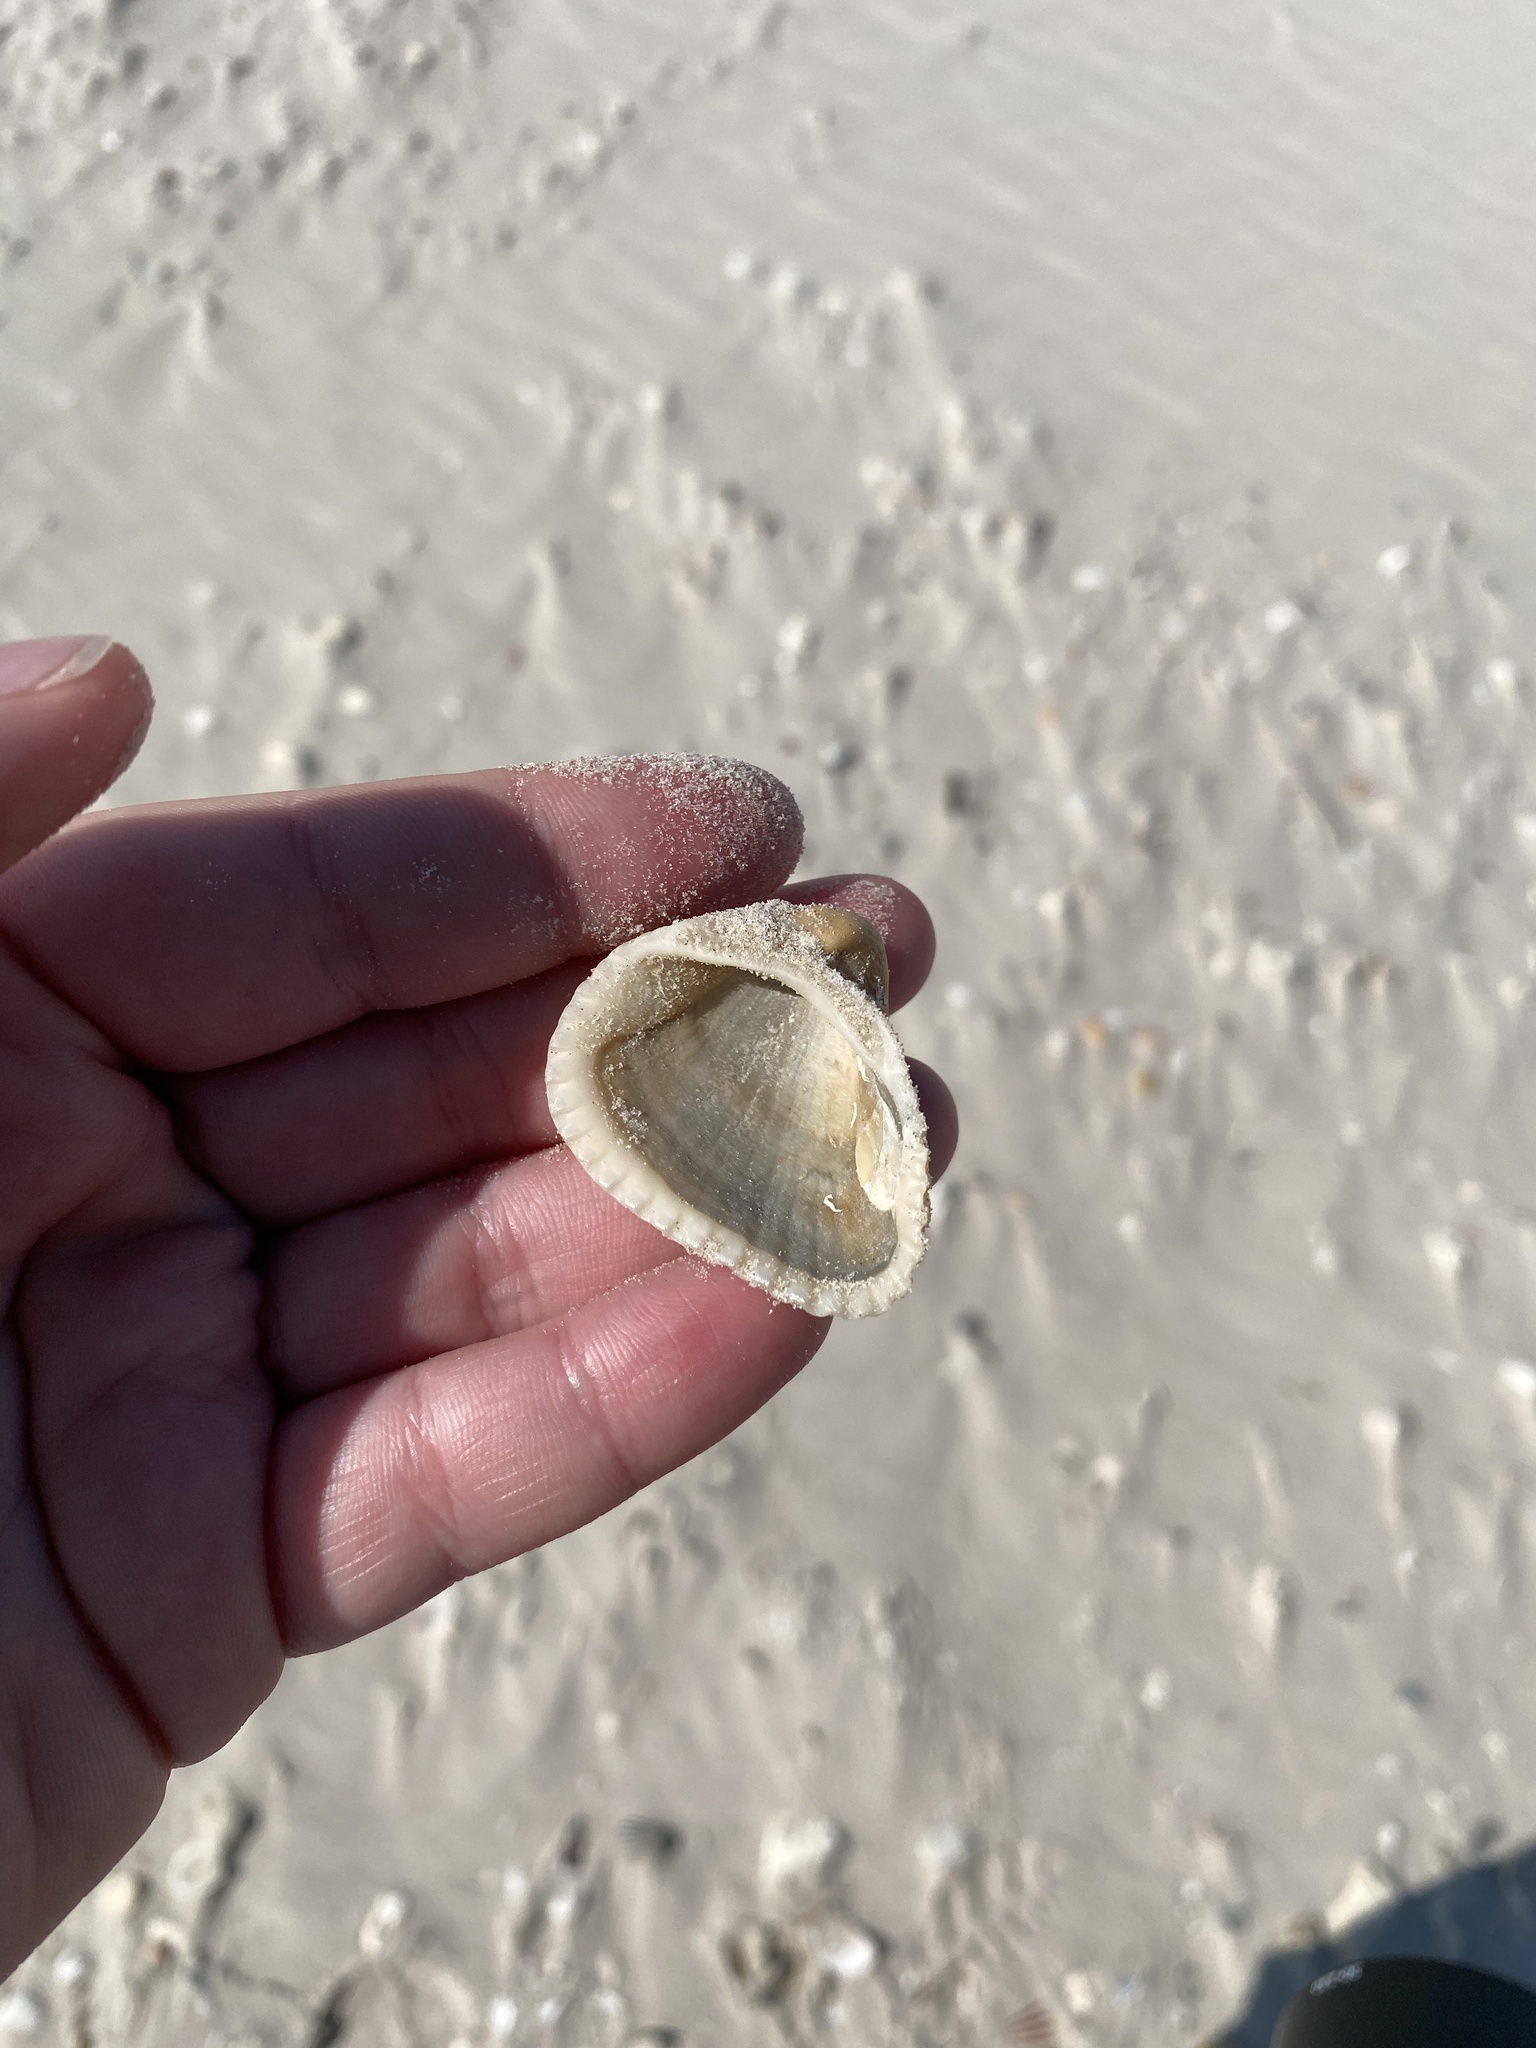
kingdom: Animalia
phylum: Mollusca
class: Bivalvia
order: Arcida
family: Noetiidae
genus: Noetia
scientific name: Noetia ponderosa
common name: Ponderous ark
